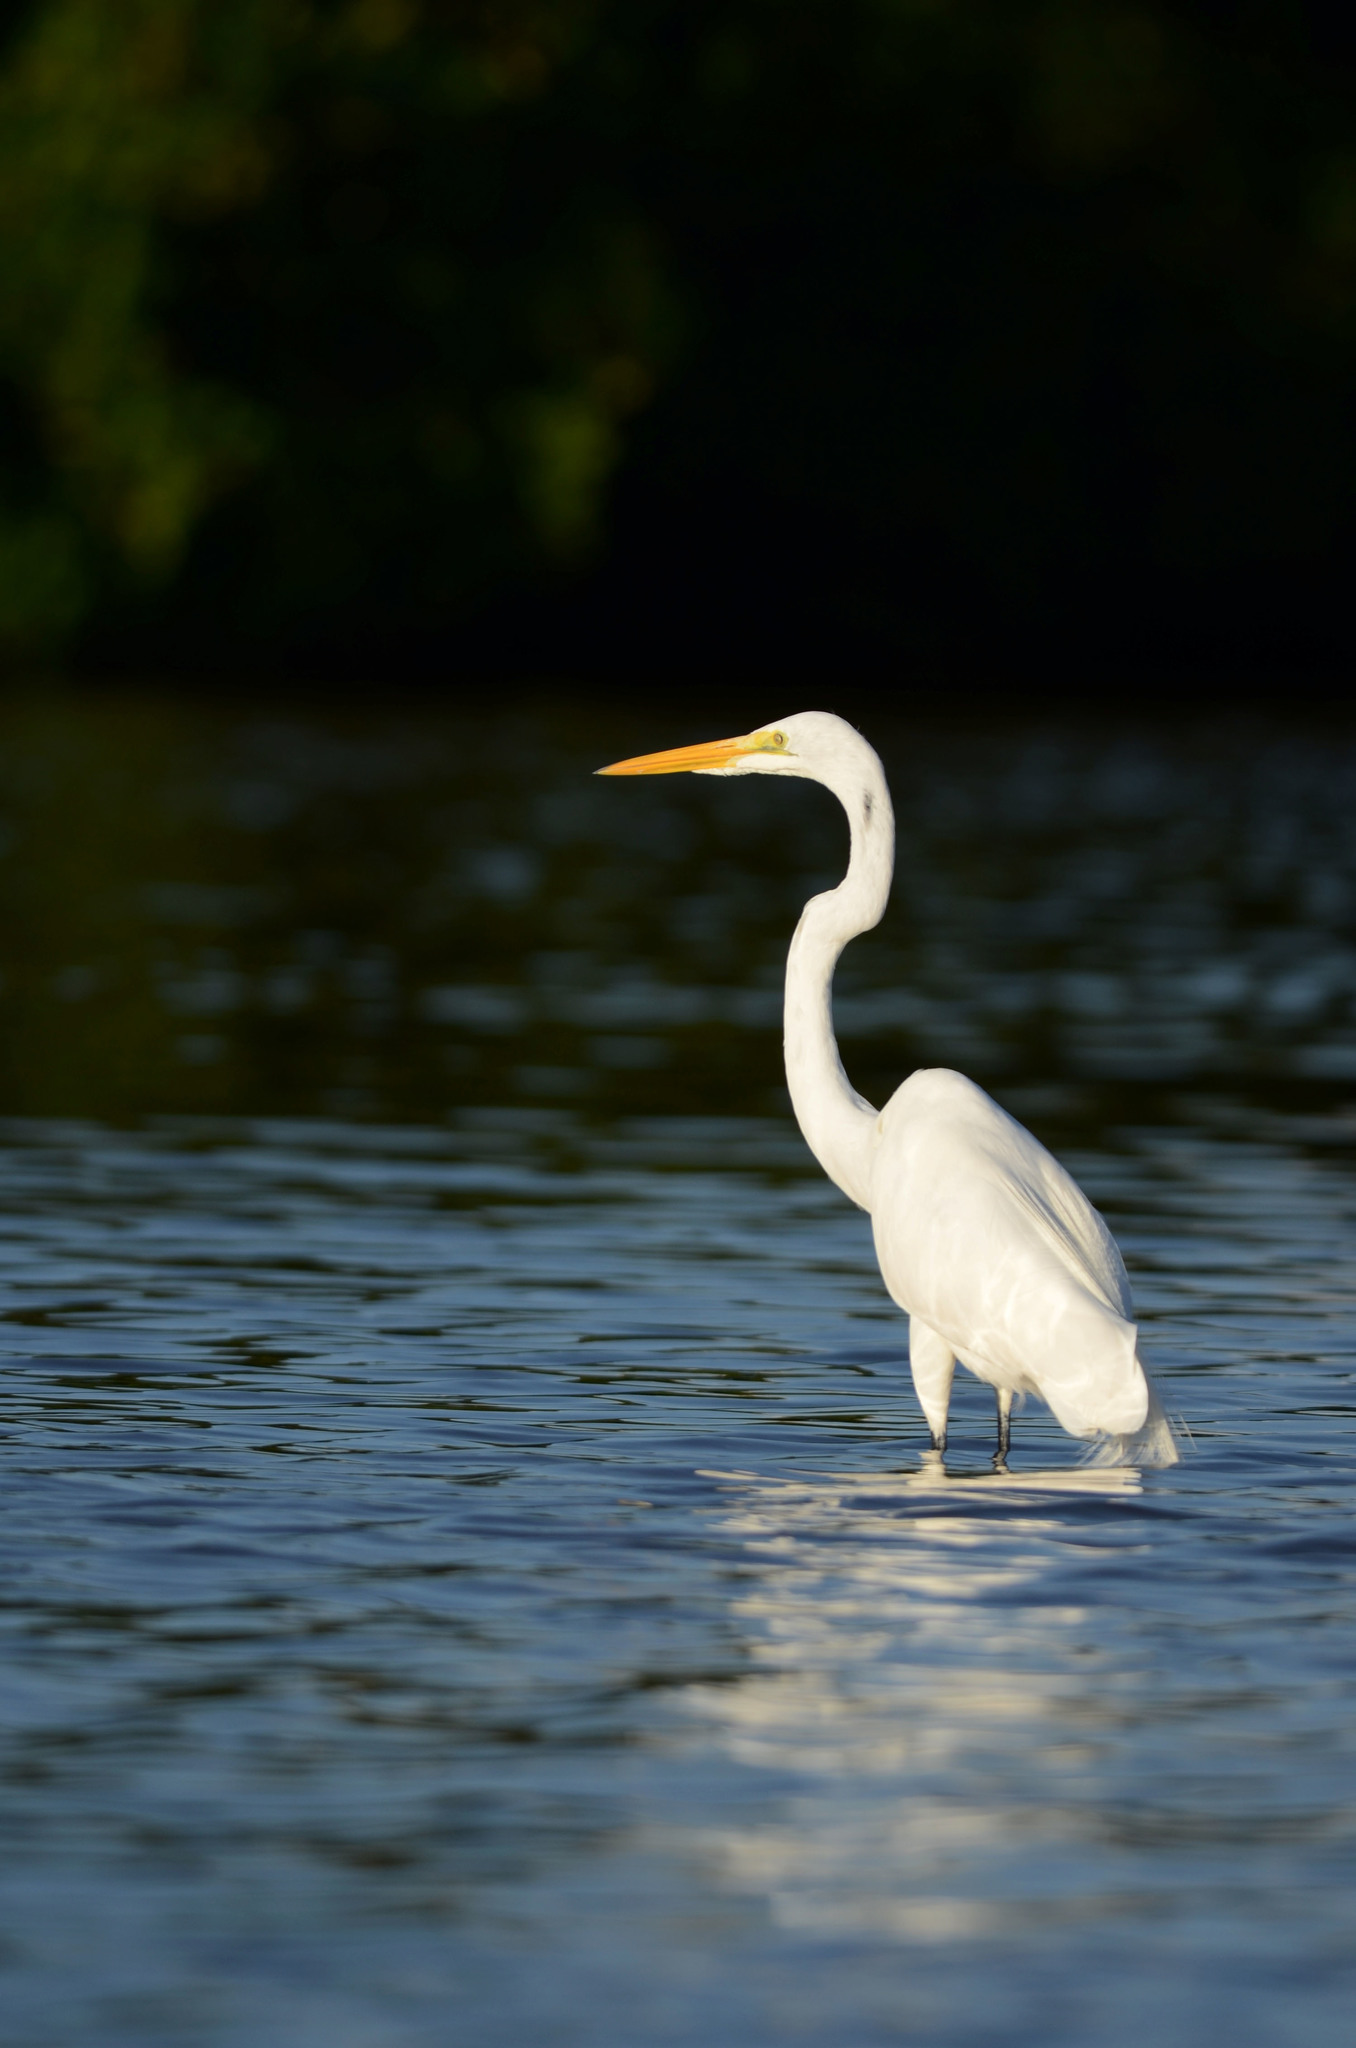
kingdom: Animalia
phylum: Chordata
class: Aves
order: Pelecaniformes
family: Ardeidae
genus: Ardea
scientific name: Ardea alba
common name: Great egret
